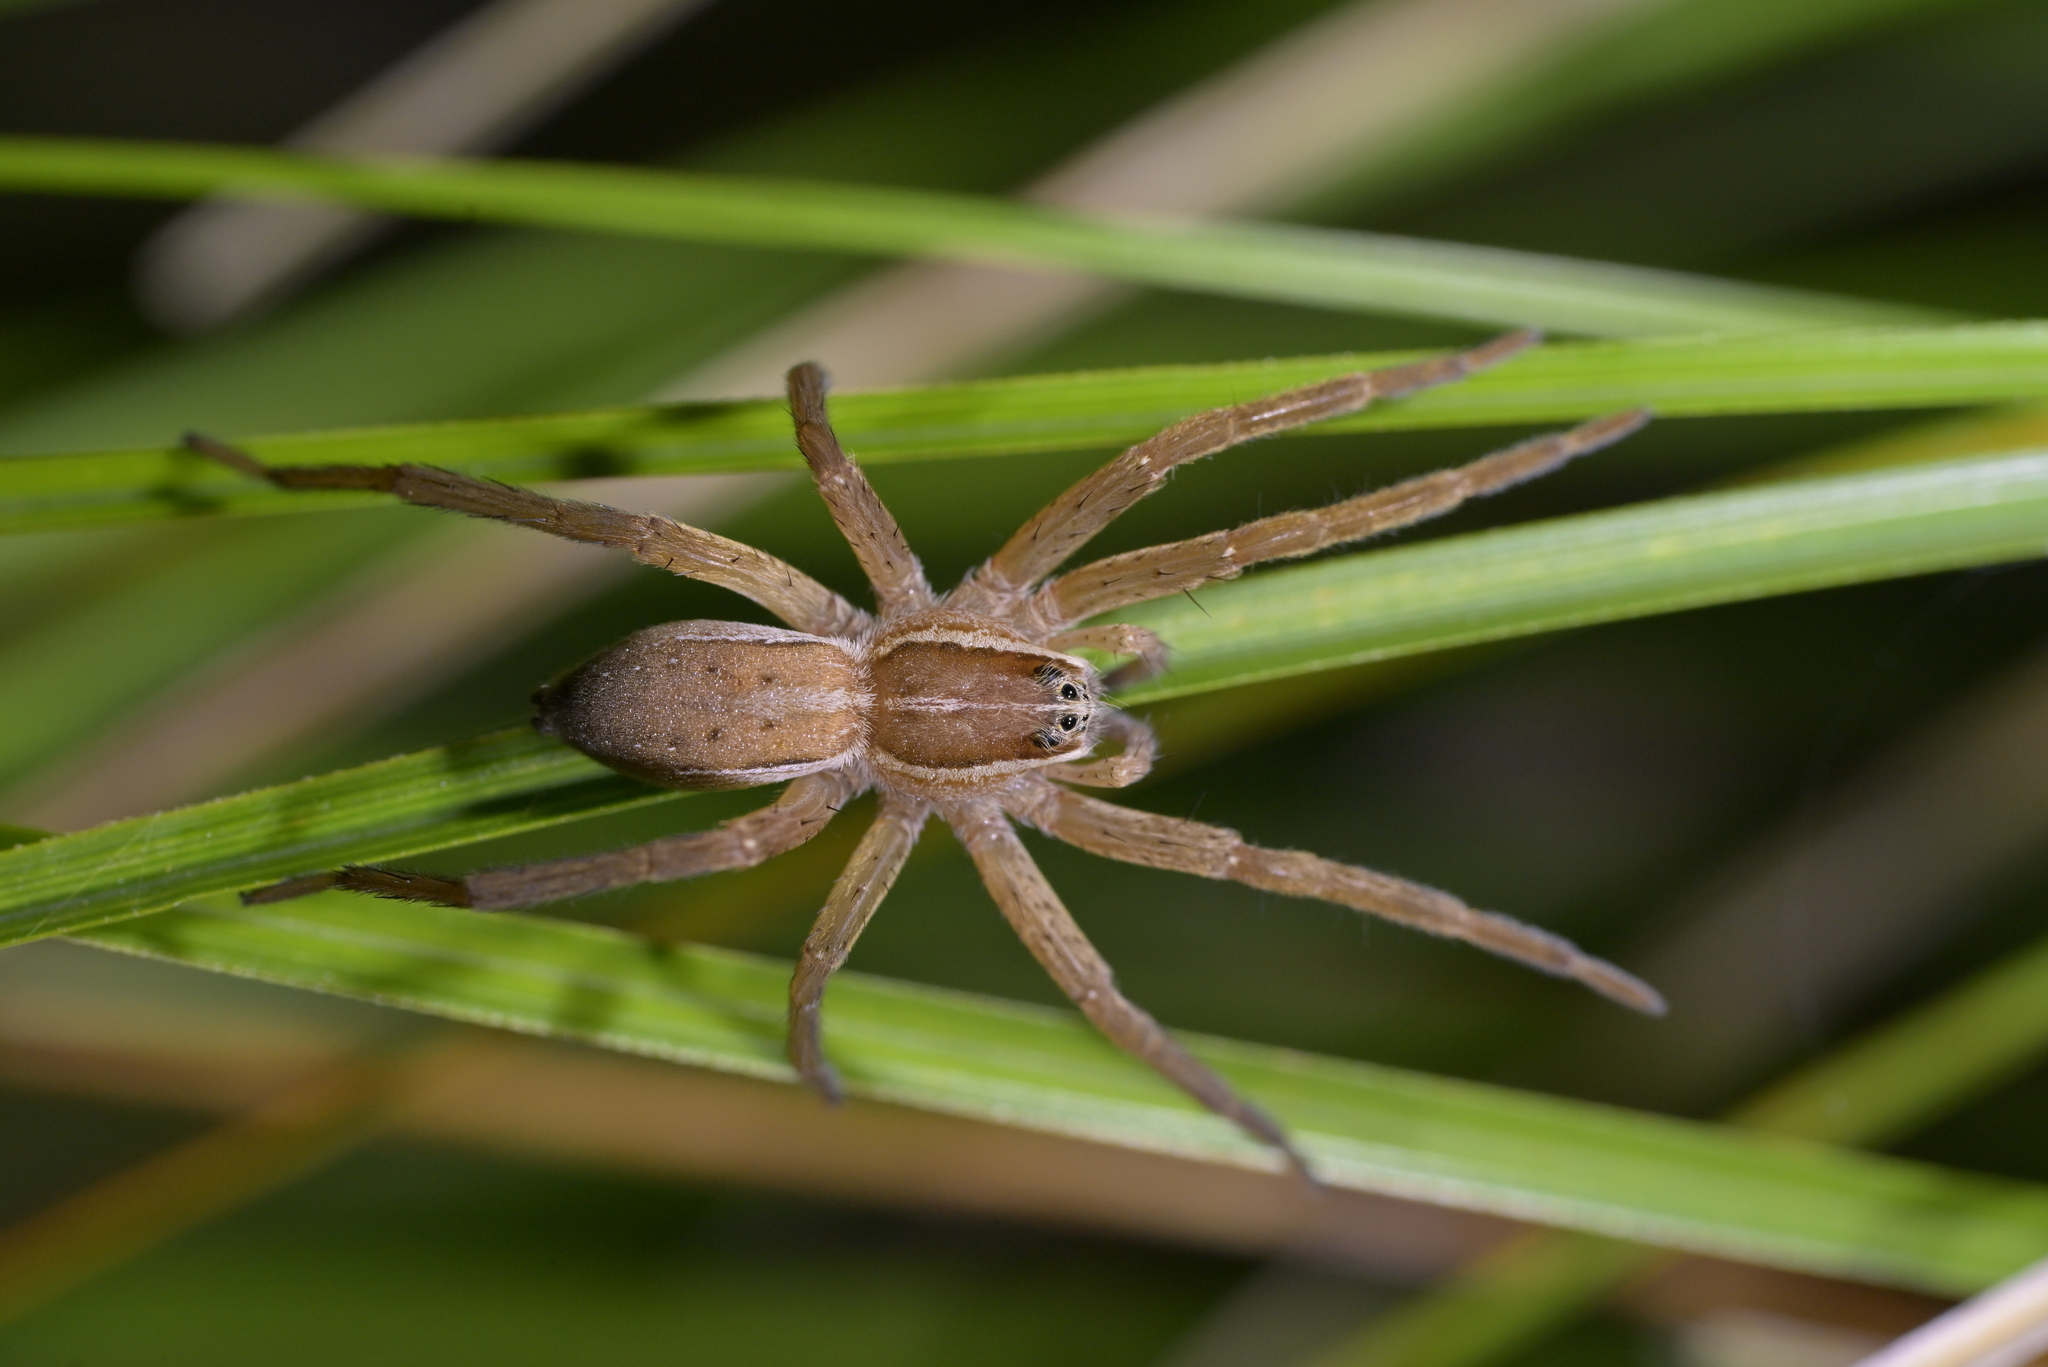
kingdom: Animalia
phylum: Arthropoda
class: Arachnida
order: Araneae
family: Pisauridae
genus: Dolomedes
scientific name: Dolomedes minor
